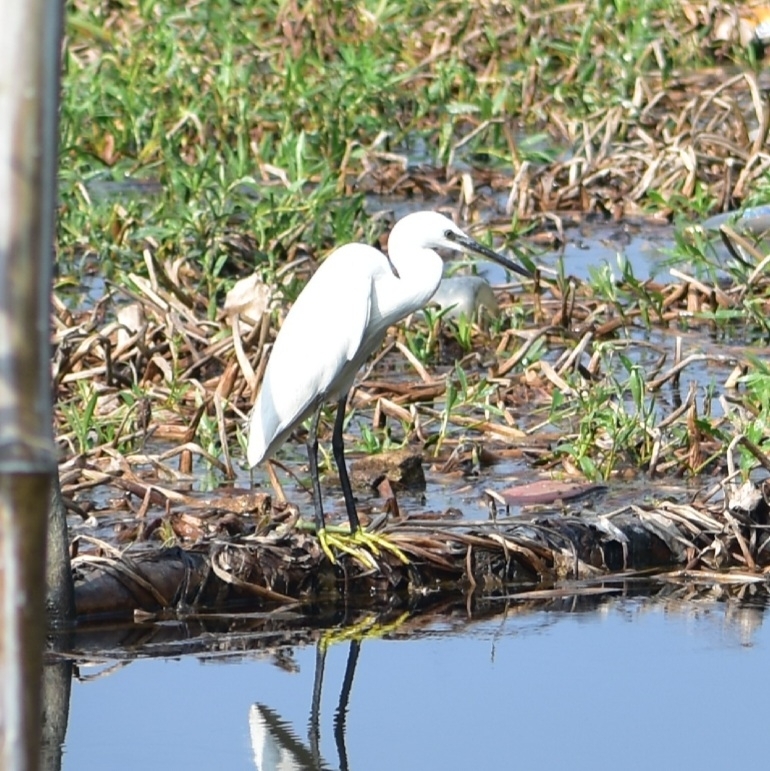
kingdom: Animalia
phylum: Chordata
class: Aves
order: Pelecaniformes
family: Ardeidae
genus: Egretta
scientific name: Egretta garzetta
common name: Little egret
